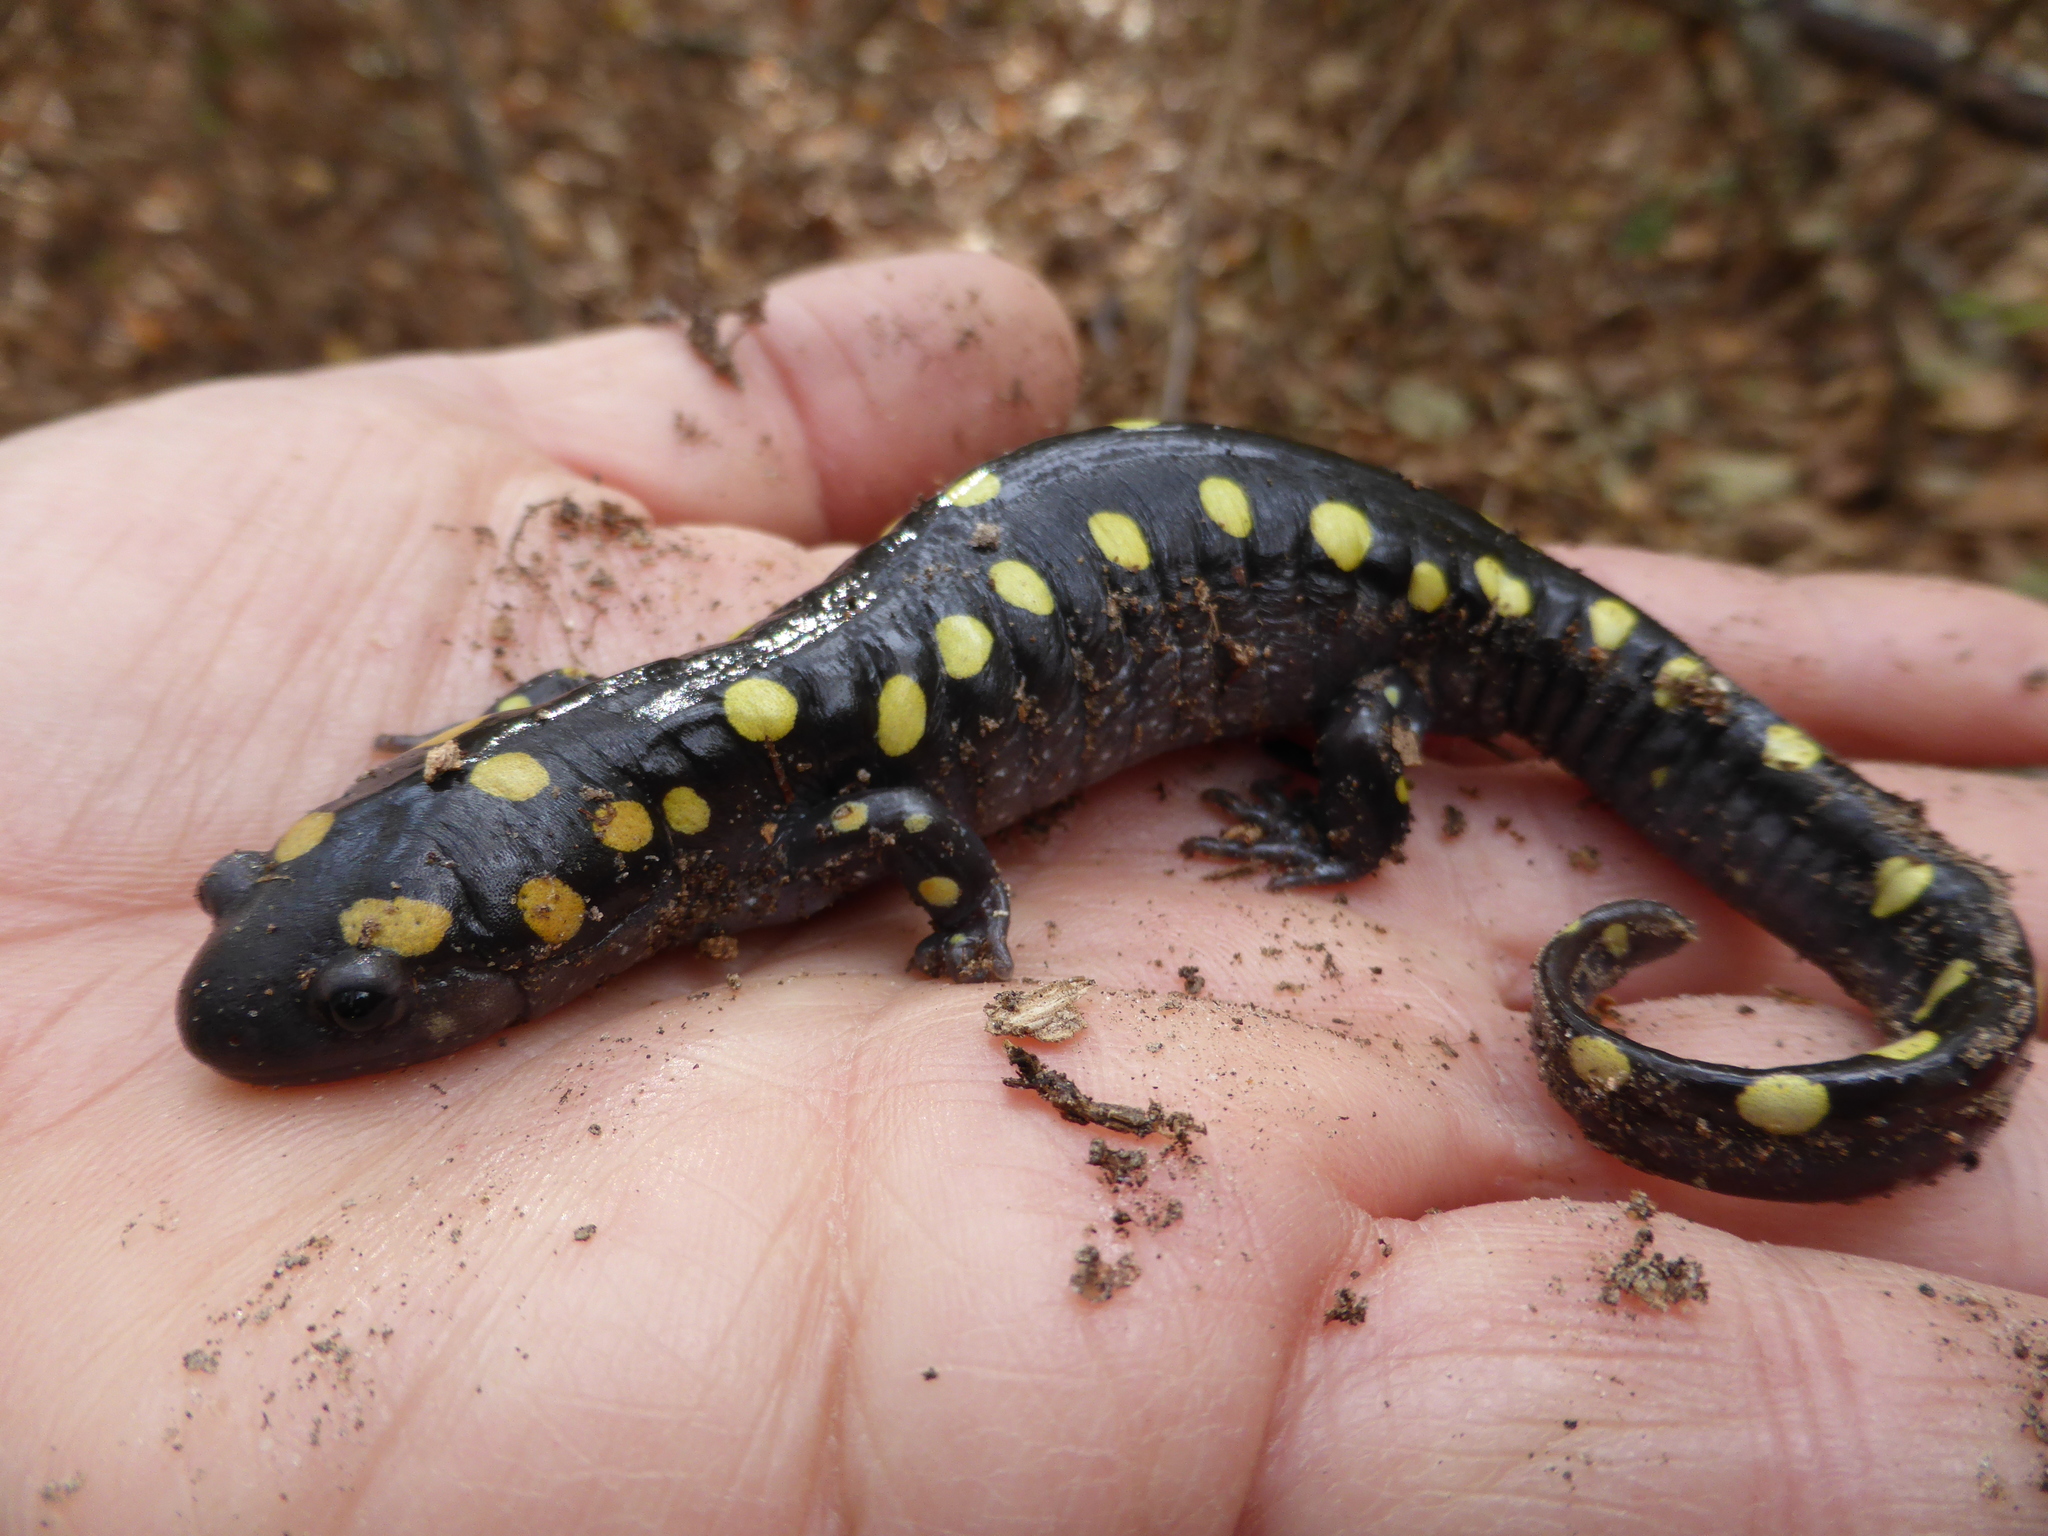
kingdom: Animalia
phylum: Chordata
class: Amphibia
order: Caudata
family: Ambystomatidae
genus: Ambystoma
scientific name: Ambystoma maculatum
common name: Spotted salamander
